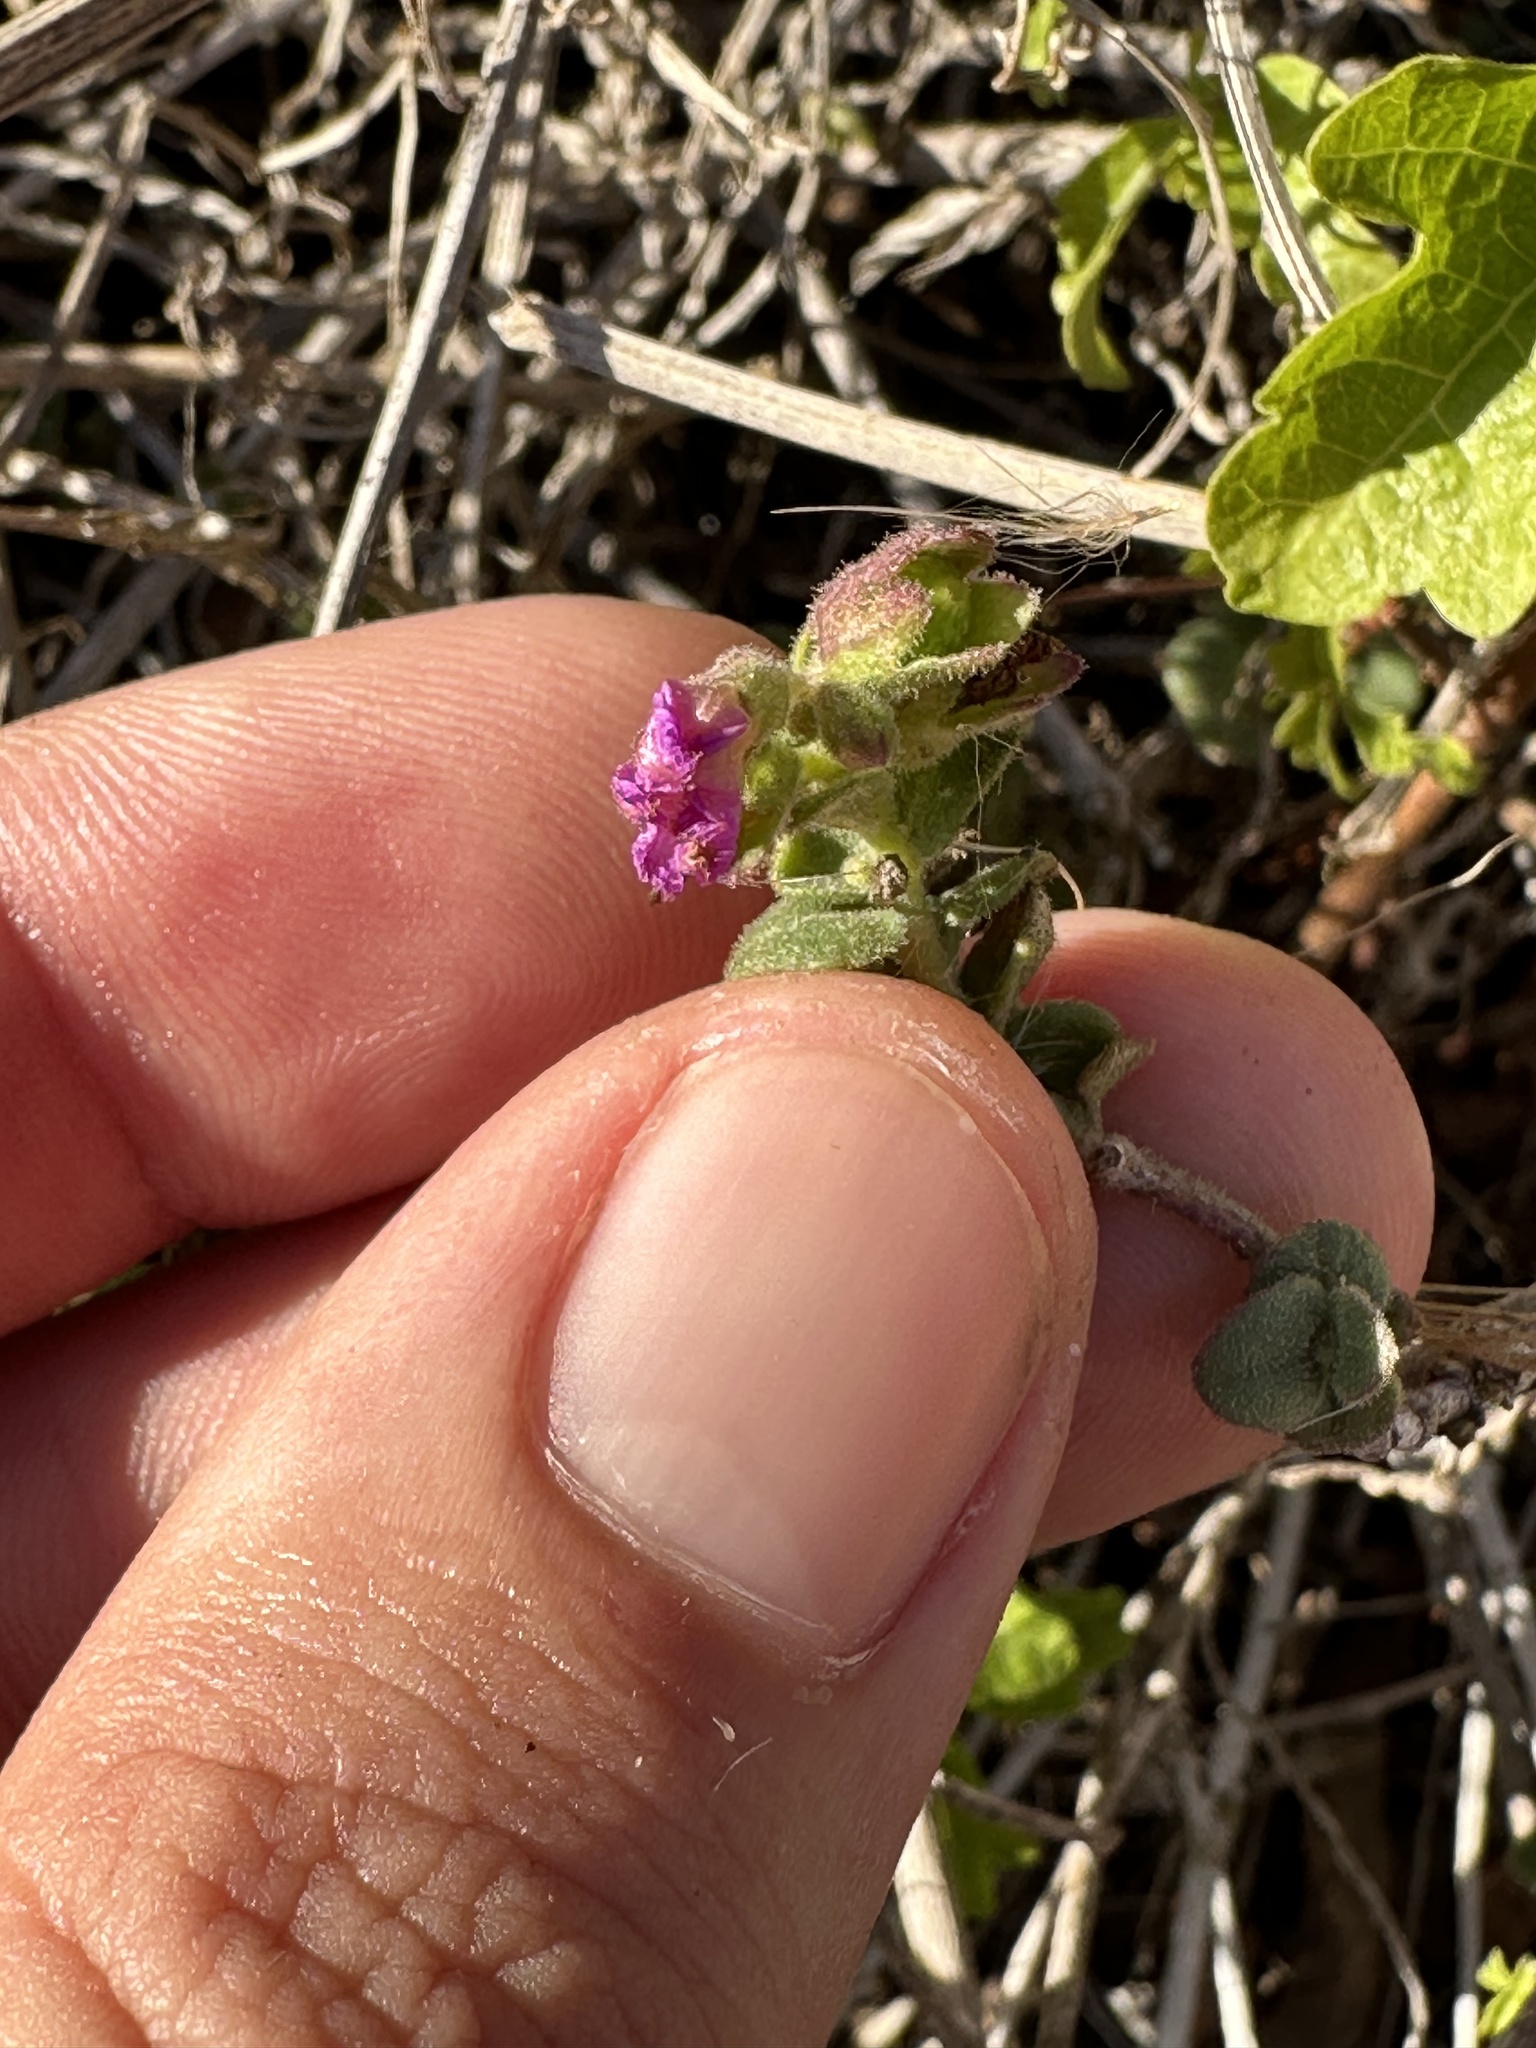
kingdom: Plantae
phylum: Tracheophyta
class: Magnoliopsida
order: Caryophyllales
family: Nyctaginaceae
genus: Mirabilis
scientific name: Mirabilis laevis
